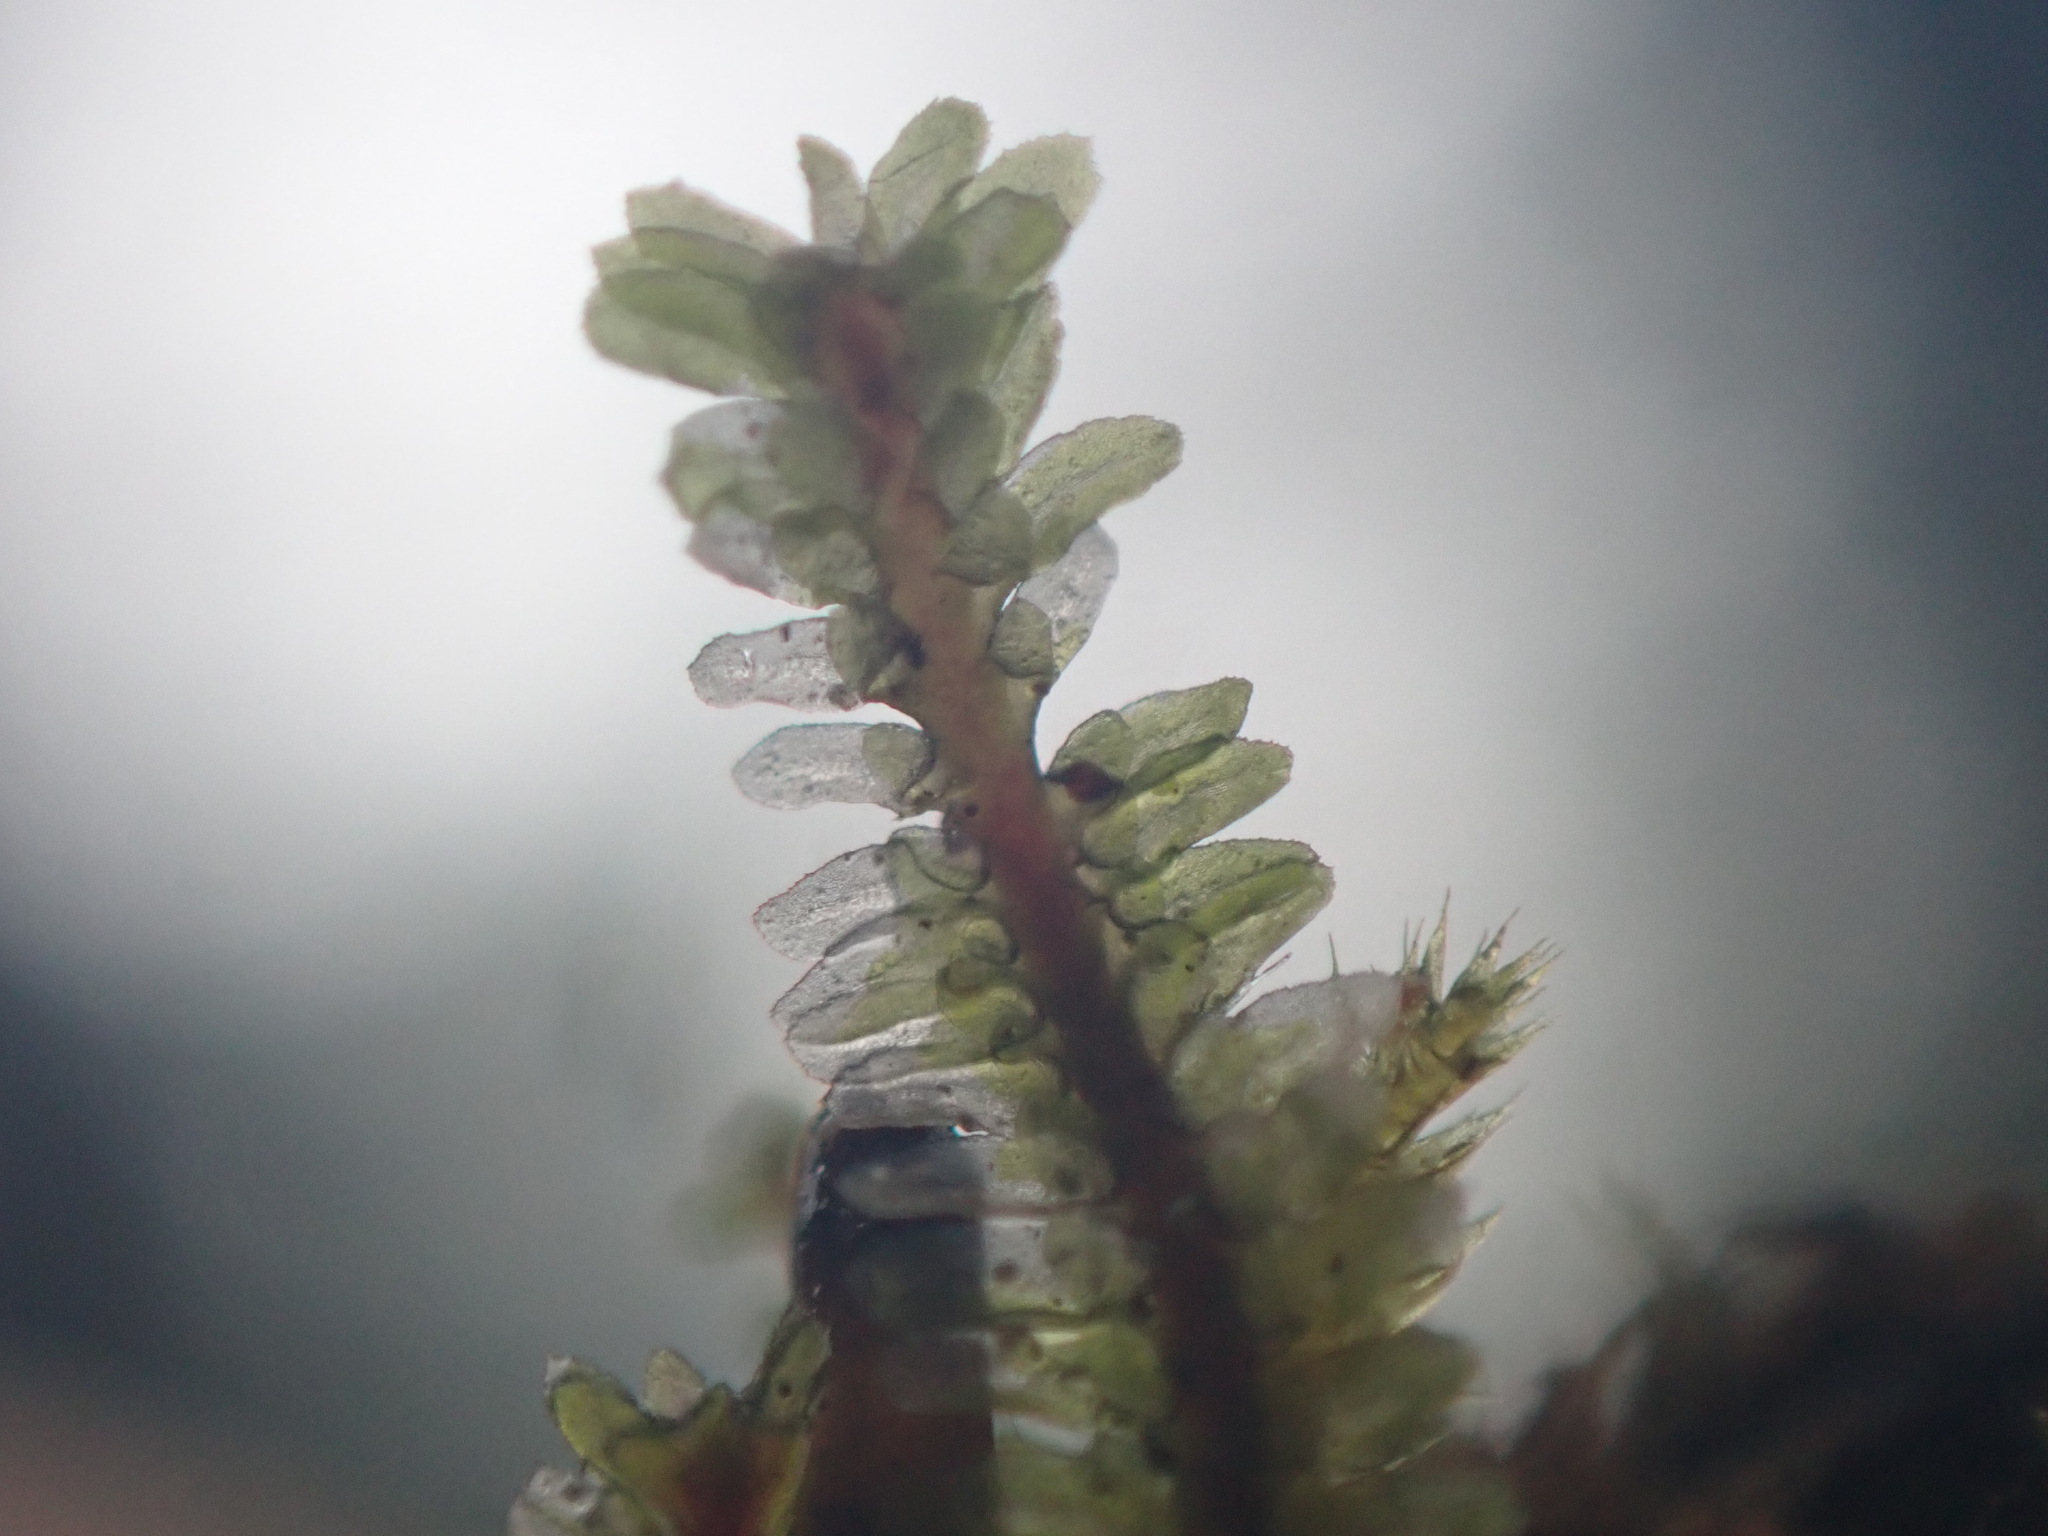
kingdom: Plantae
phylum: Marchantiophyta
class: Jungermanniopsida
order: Jungermanniales
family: Scapaniaceae
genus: Diplophyllum
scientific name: Diplophyllum albicans
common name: White earwort
